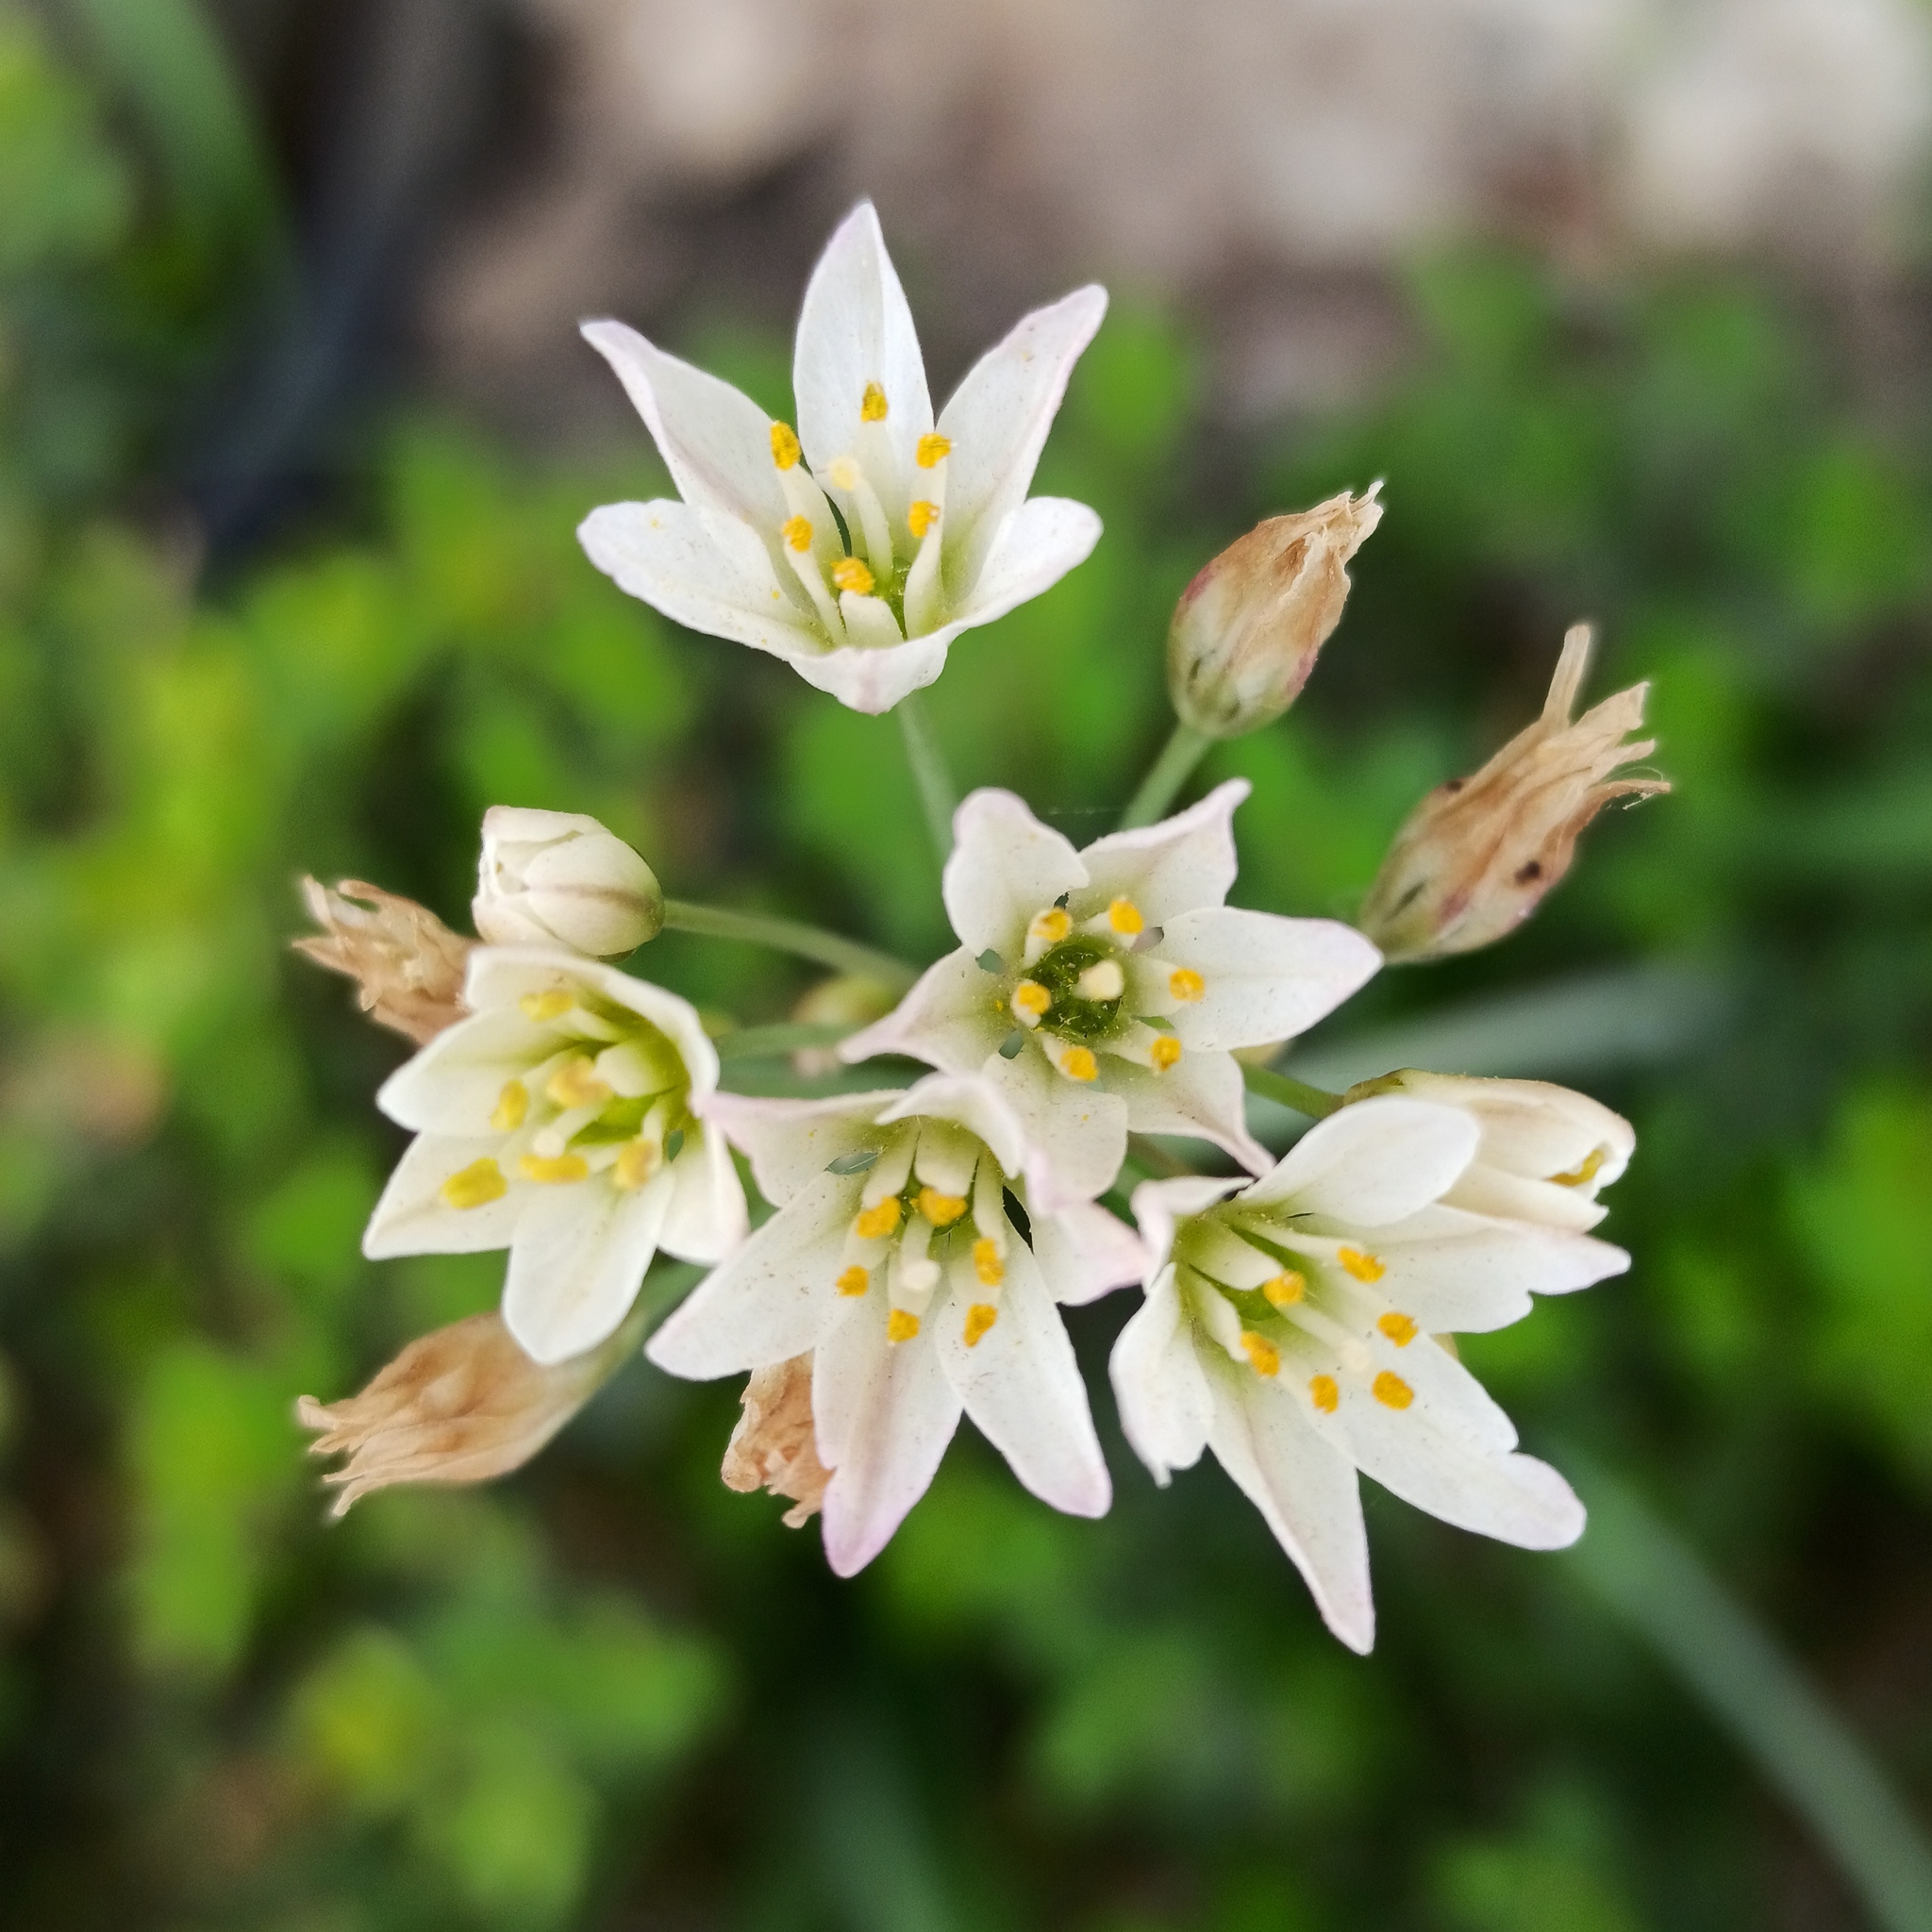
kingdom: Plantae
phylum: Tracheophyta
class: Liliopsida
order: Asparagales
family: Amaryllidaceae
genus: Nothoscordum
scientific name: Nothoscordum bivalve
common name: Crow-poison
